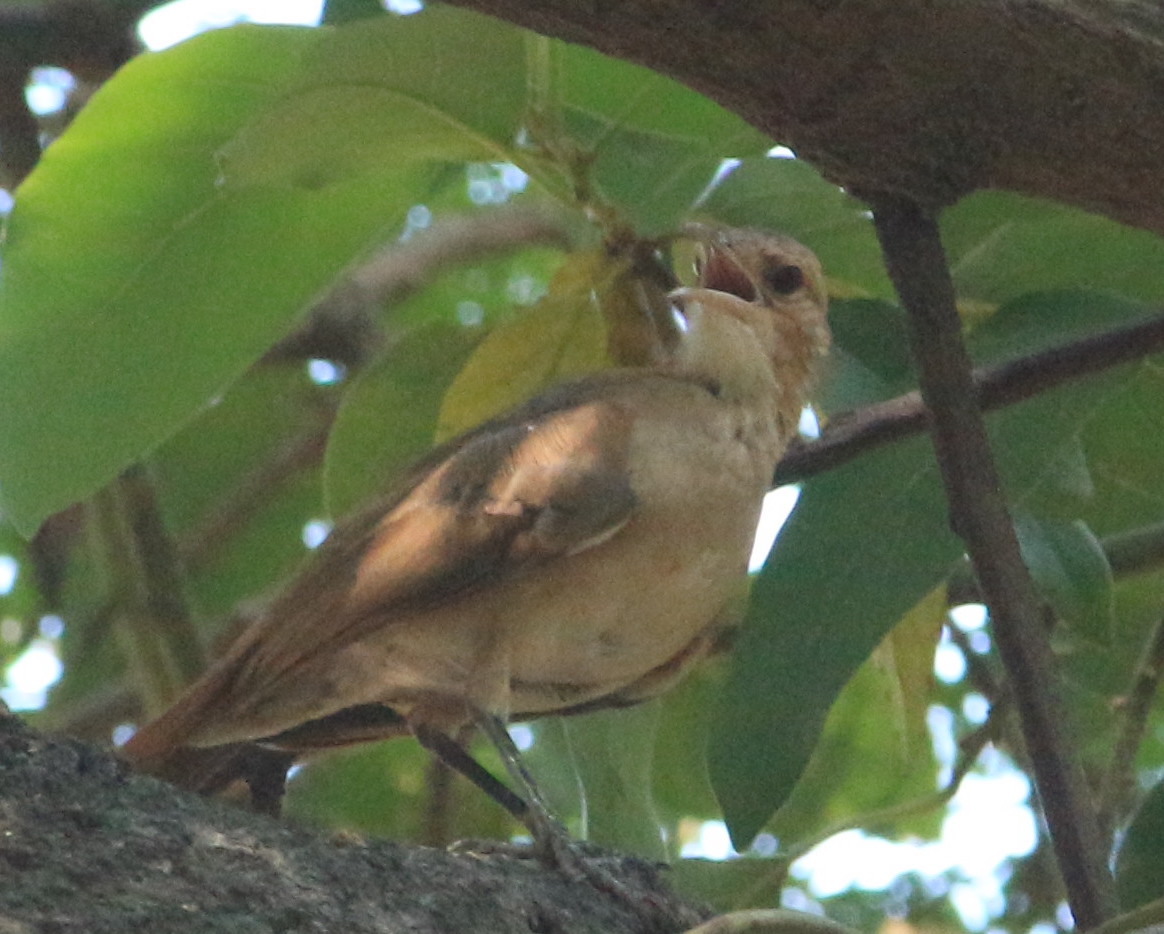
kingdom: Animalia
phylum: Chordata
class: Aves
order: Passeriformes
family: Furnariidae
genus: Furnarius
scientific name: Furnarius rufus
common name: Rufous hornero
